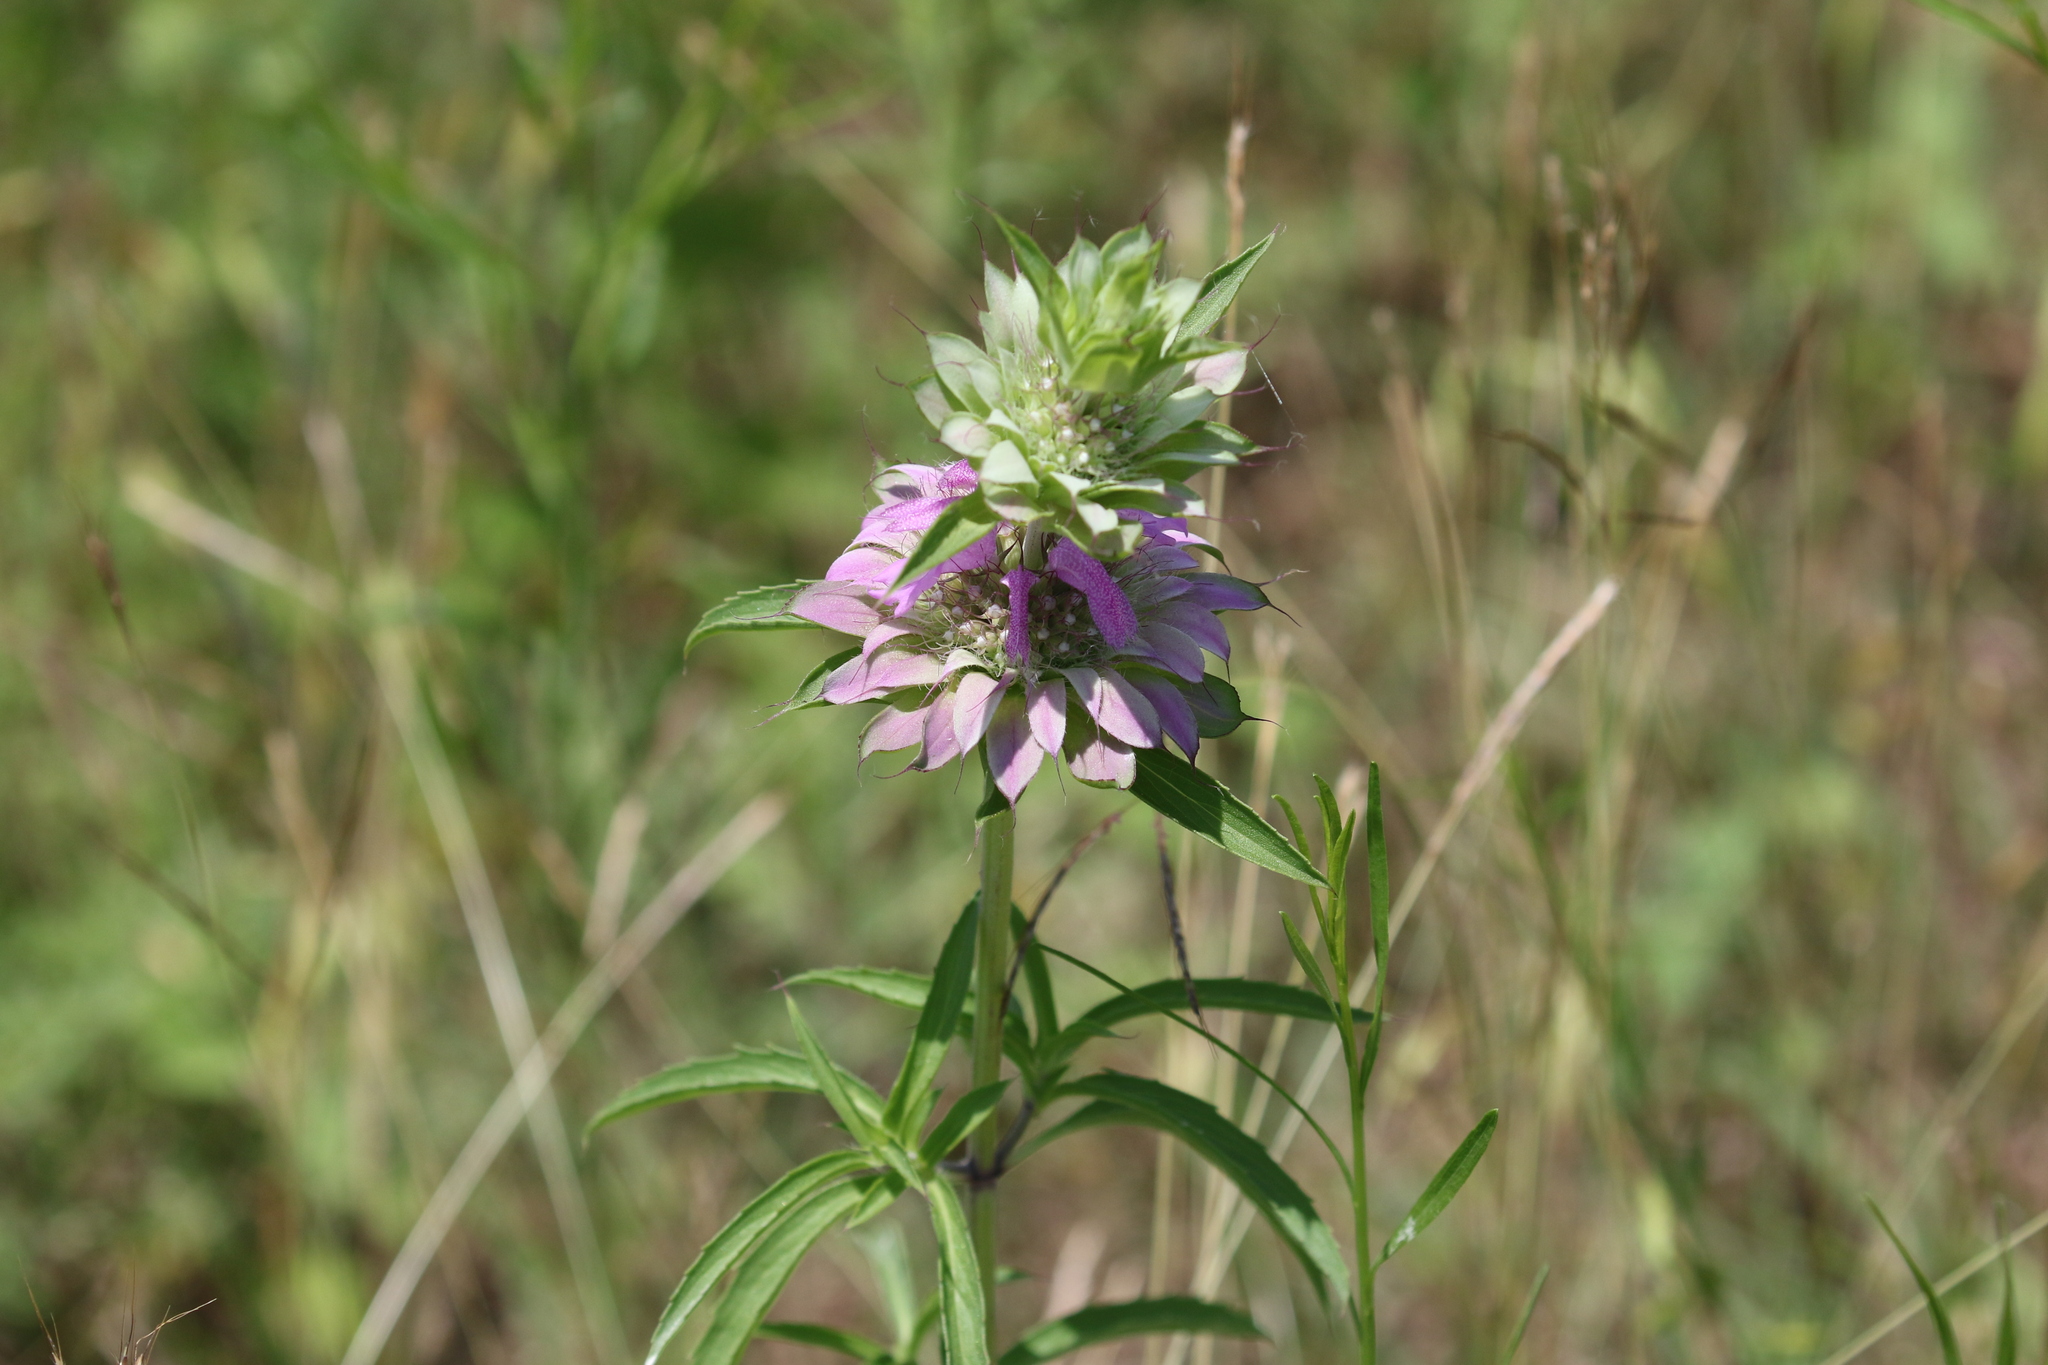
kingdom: Plantae
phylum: Tracheophyta
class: Magnoliopsida
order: Lamiales
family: Lamiaceae
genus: Monarda
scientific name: Monarda citriodora
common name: Lemon beebalm
